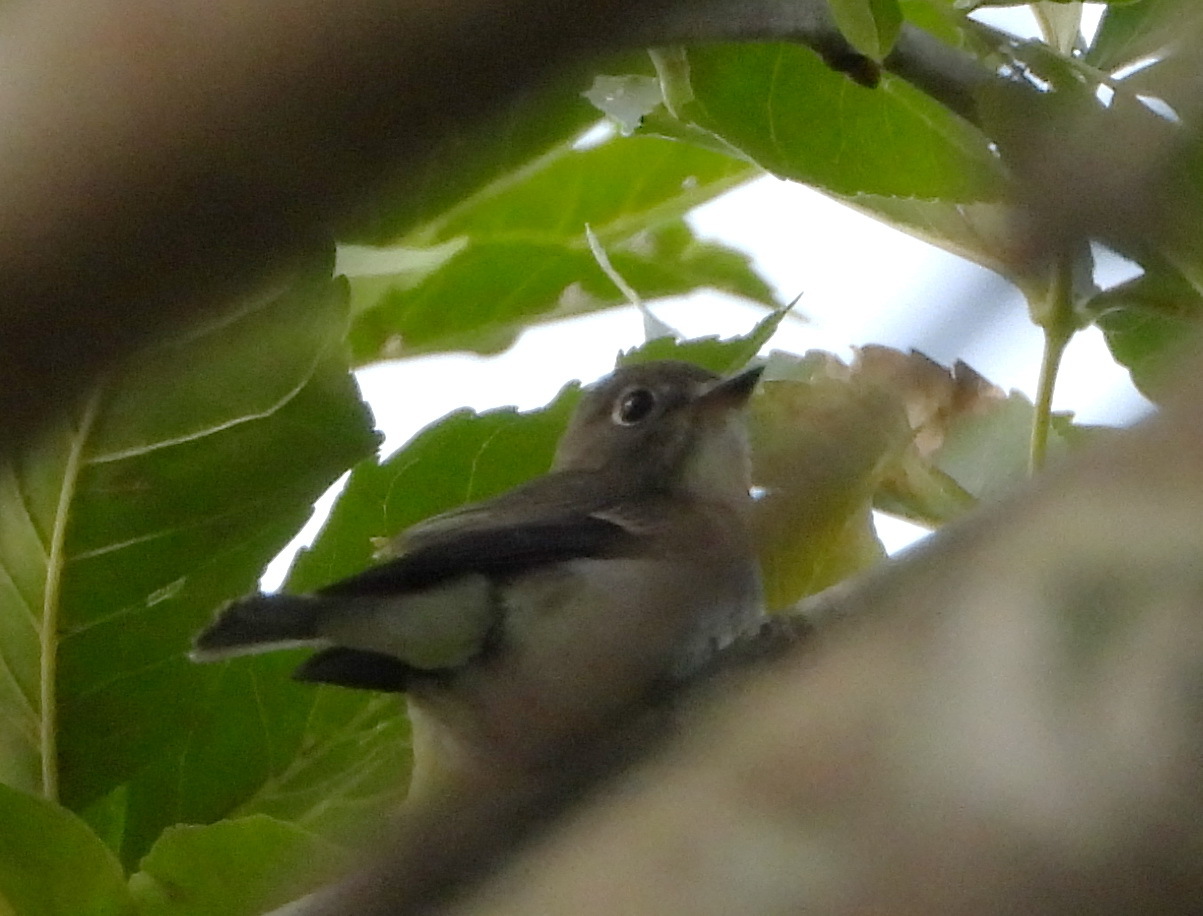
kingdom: Animalia
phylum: Chordata
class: Aves
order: Passeriformes
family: Muscicapidae
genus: Muscicapa
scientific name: Muscicapa latirostris
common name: Asian brown flycatcher
